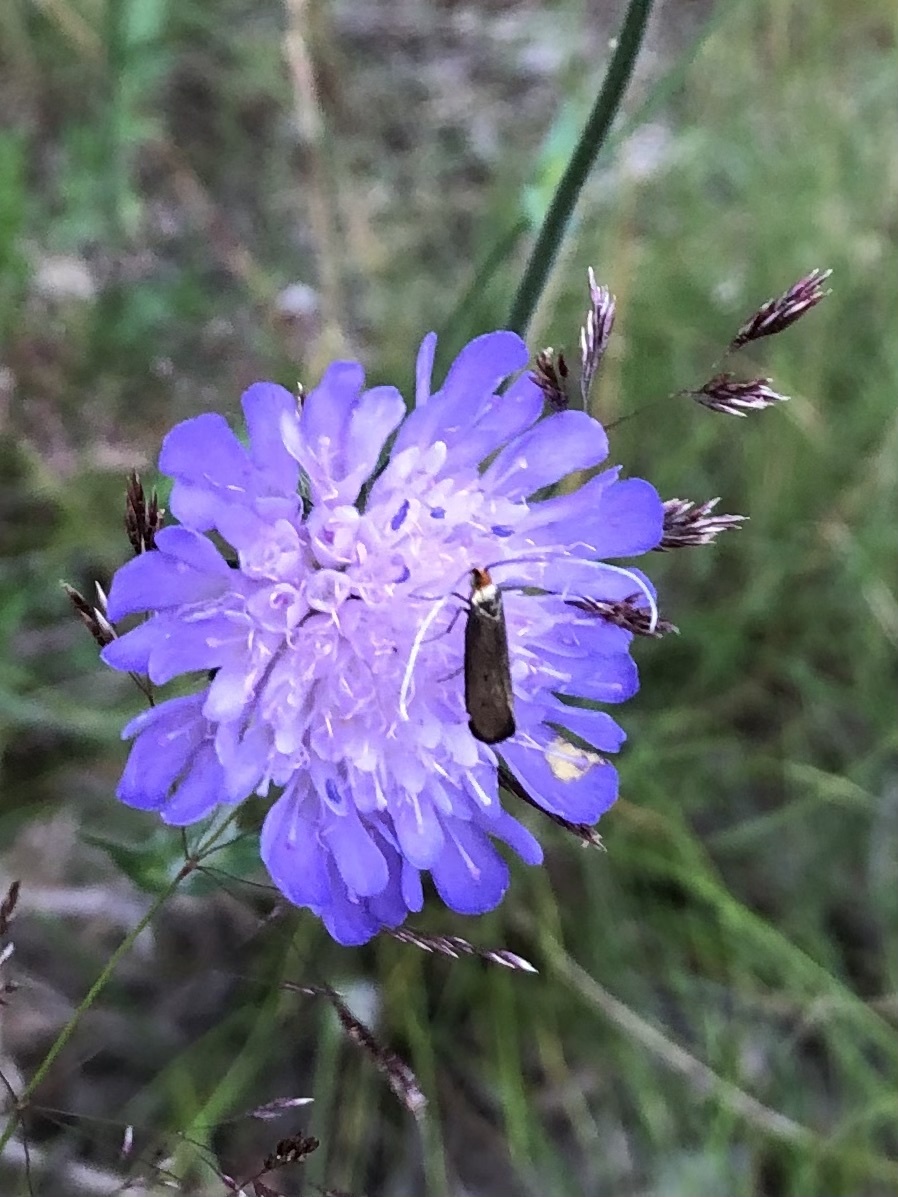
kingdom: Animalia
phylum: Arthropoda
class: Insecta
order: Lepidoptera
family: Adelidae
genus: Nemophora
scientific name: Nemophora metallica
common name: Brassy long-horn
